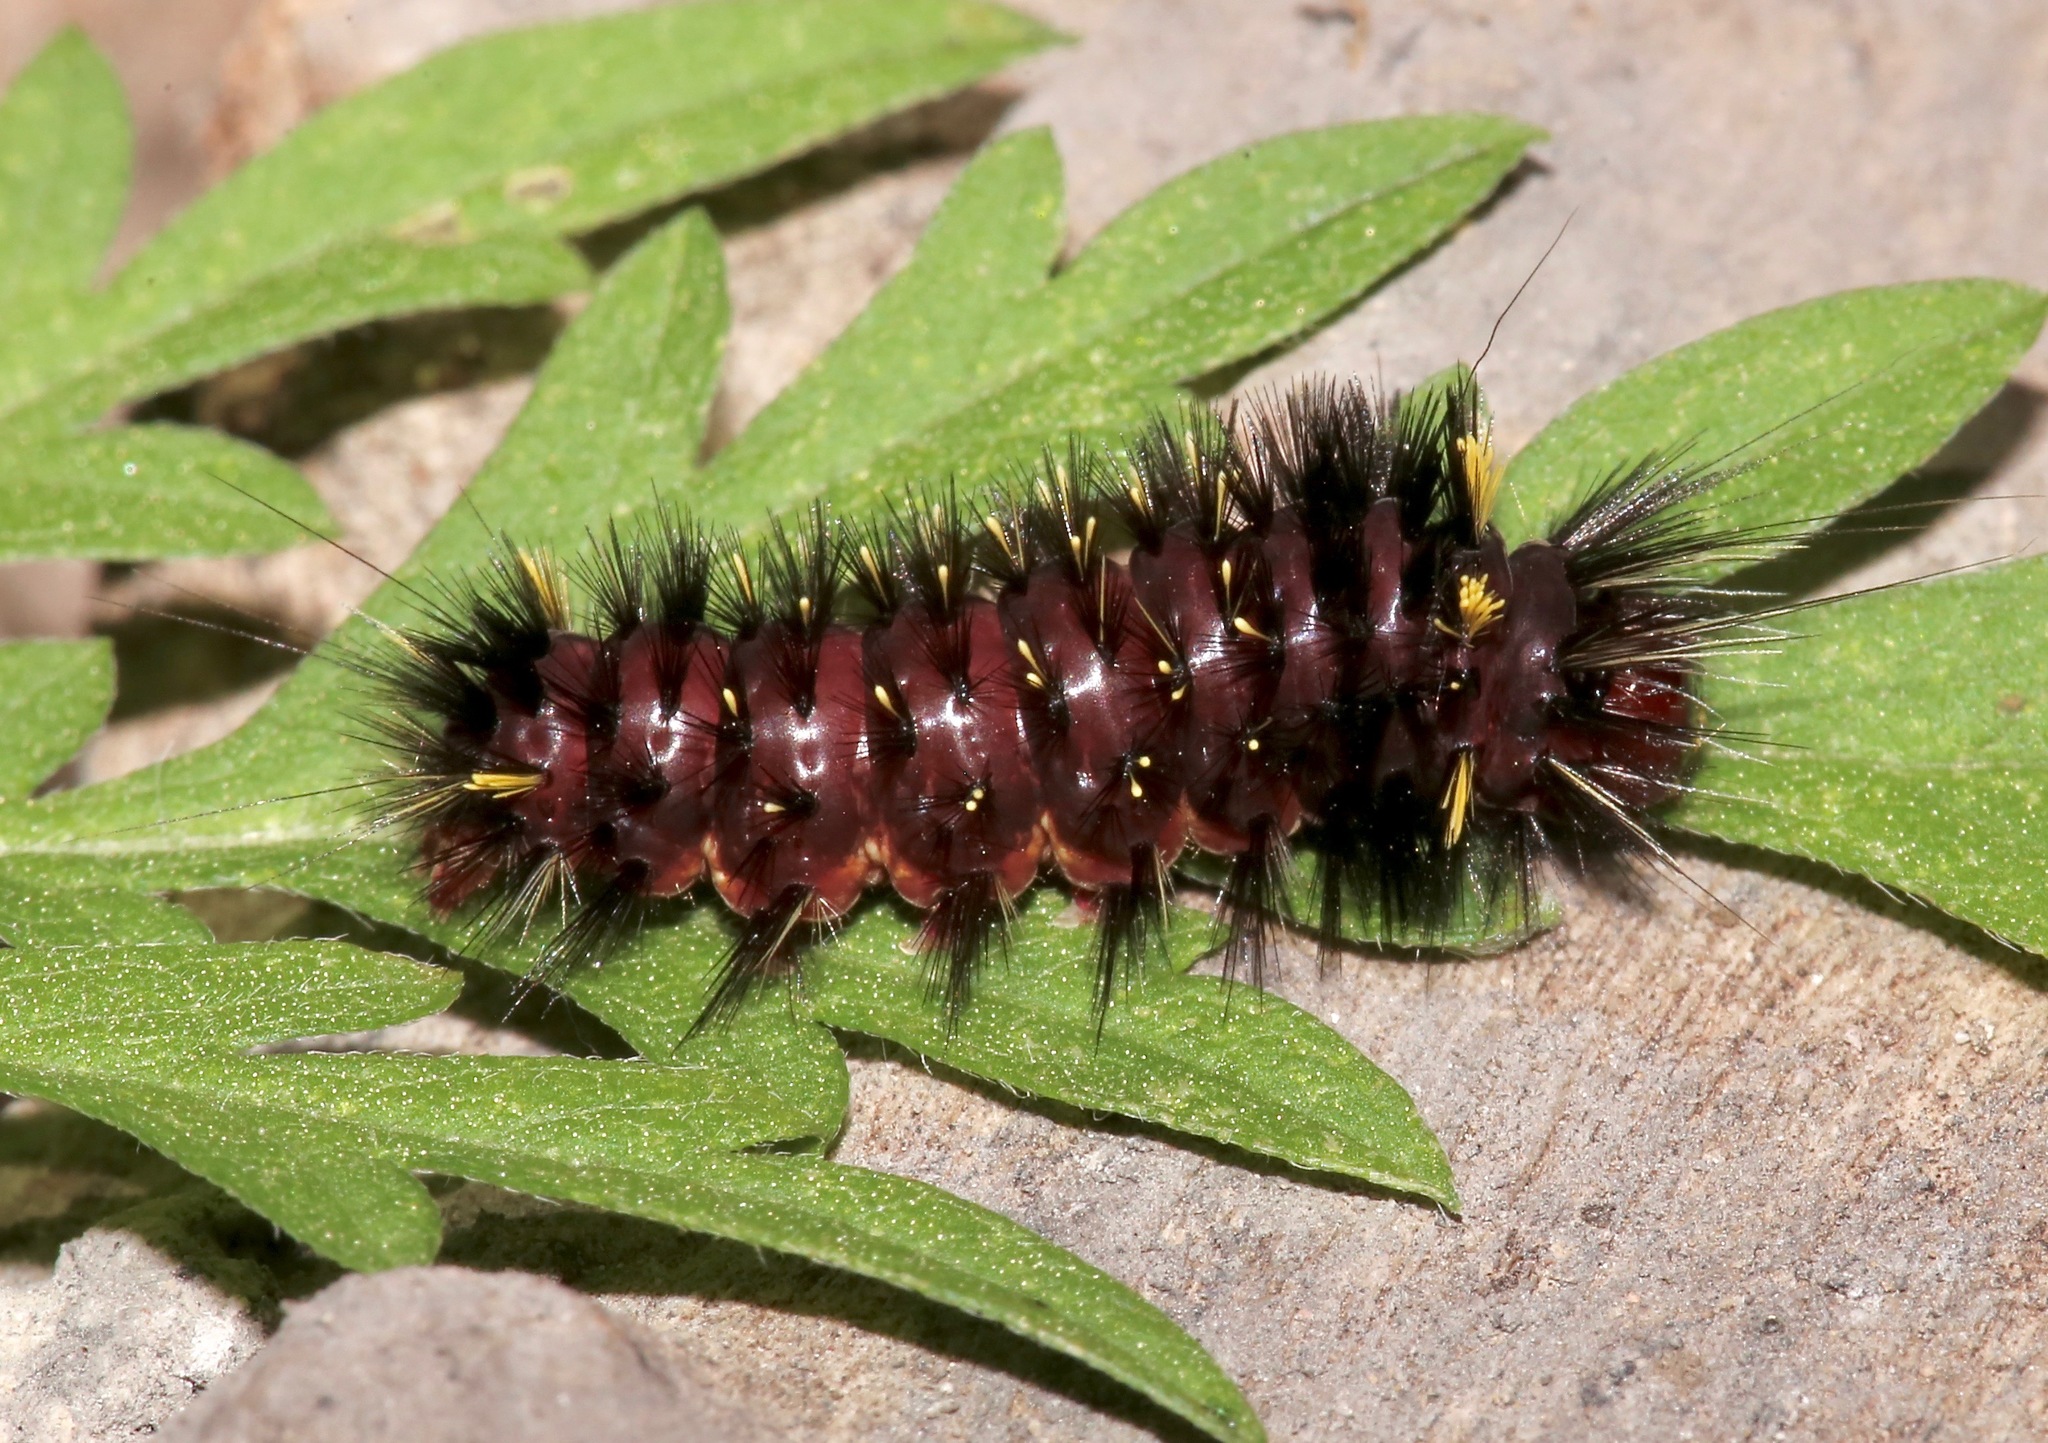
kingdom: Animalia
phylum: Arthropoda
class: Insecta
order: Lepidoptera
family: Erebidae
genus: Hypocrisias
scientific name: Hypocrisias minima
